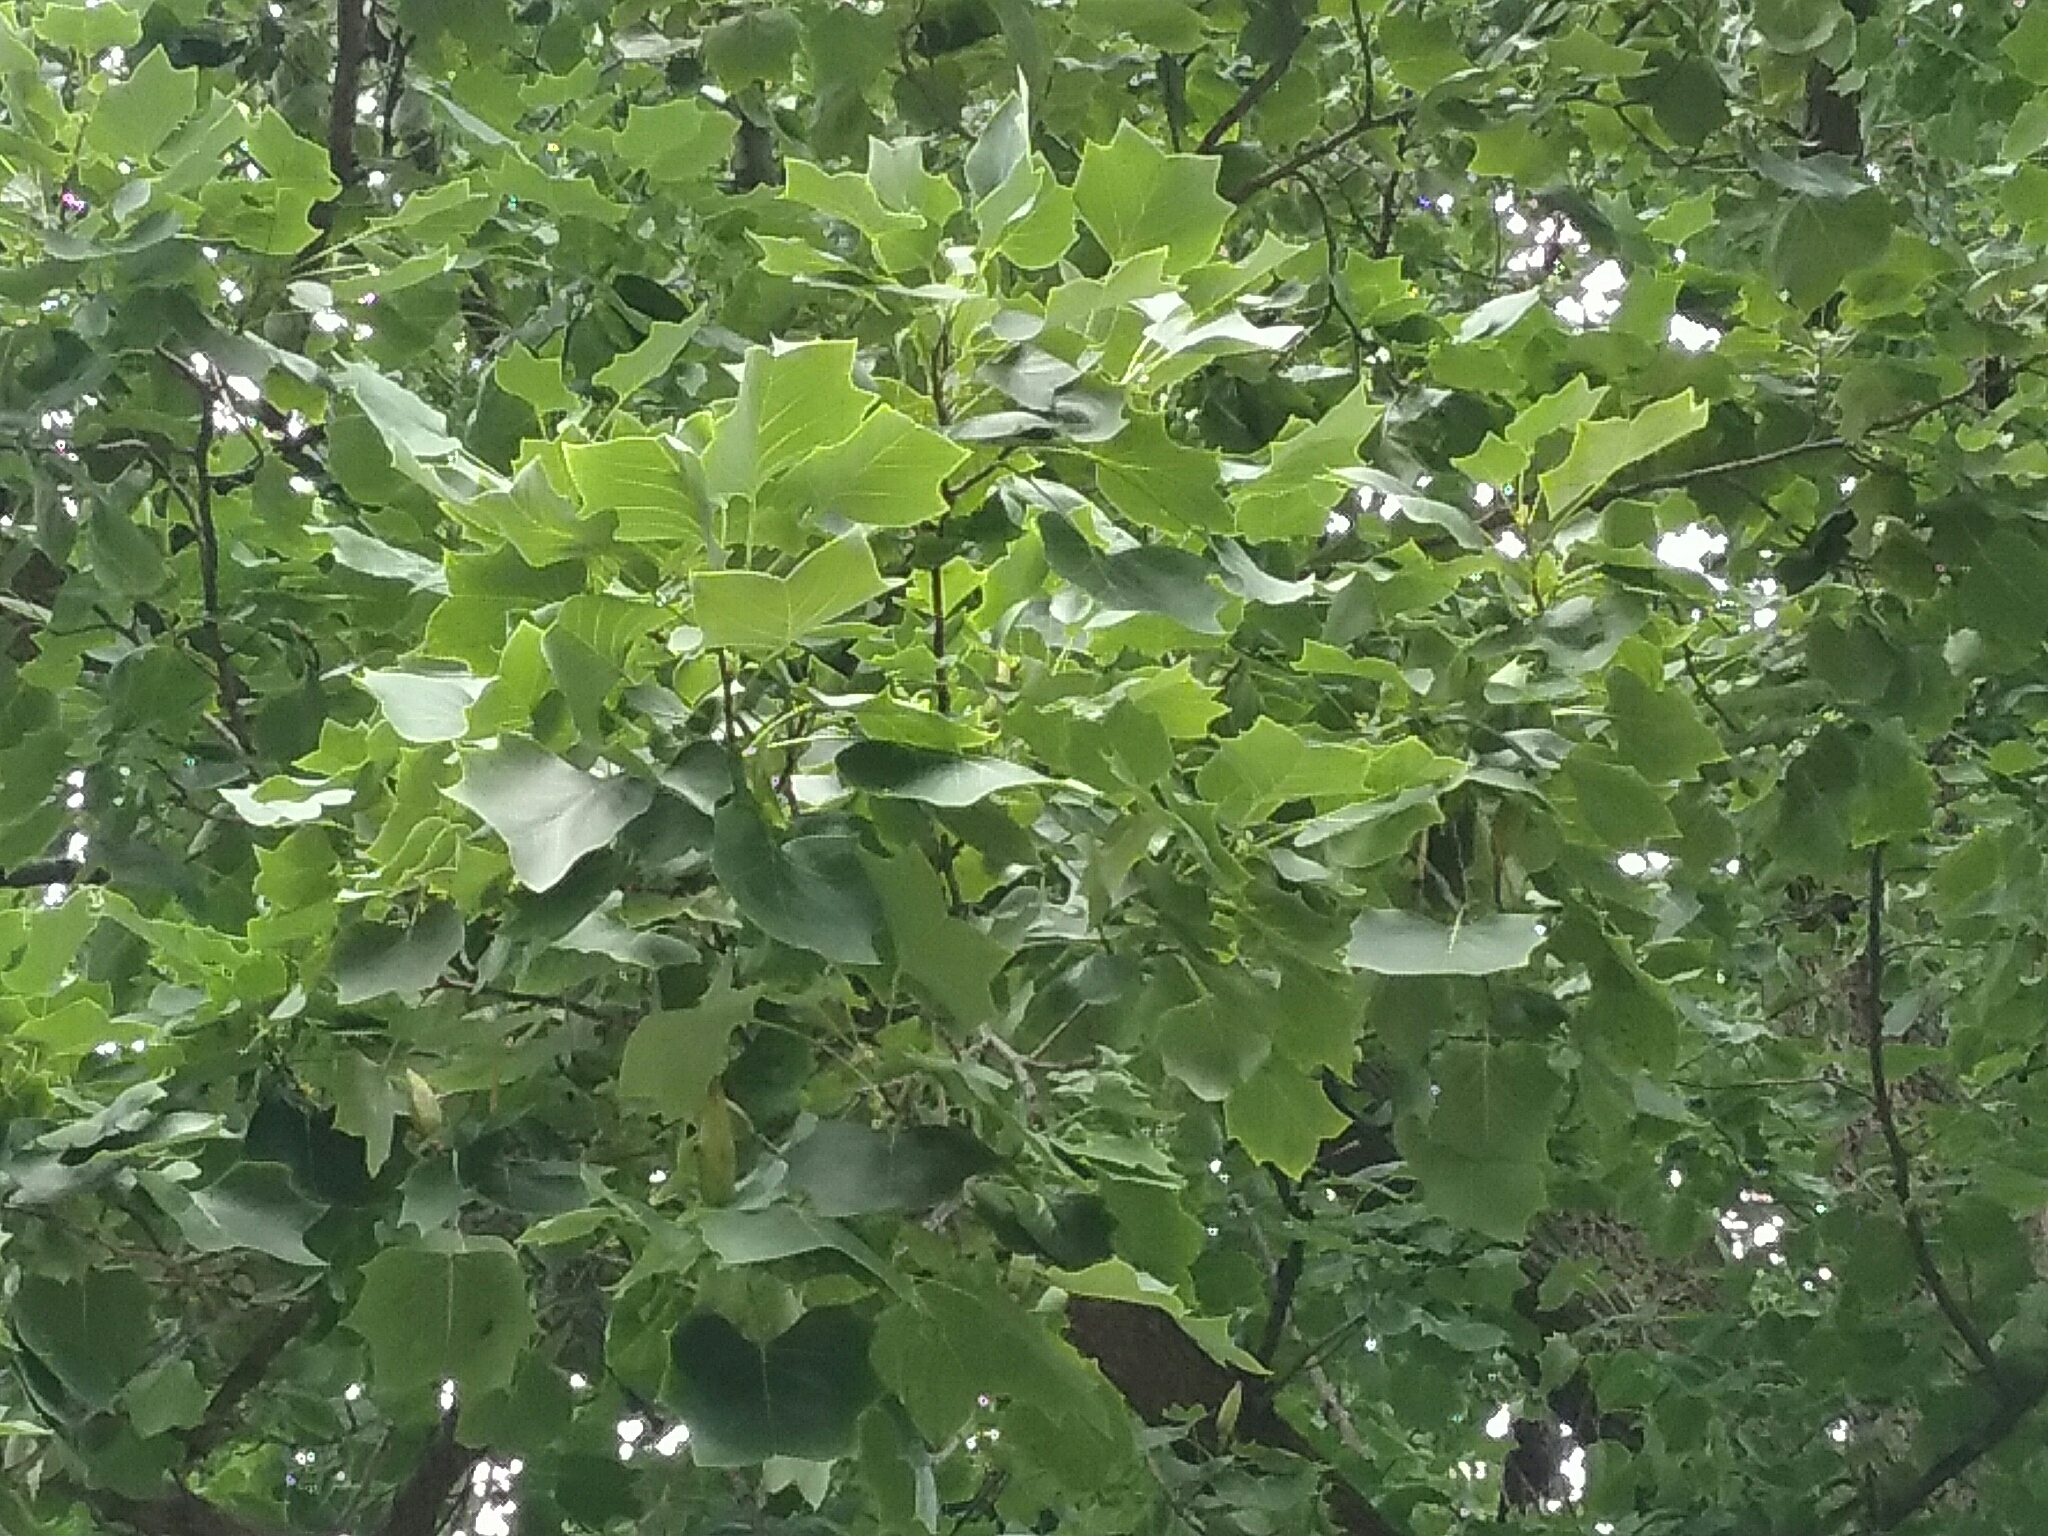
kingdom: Plantae
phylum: Tracheophyta
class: Magnoliopsida
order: Magnoliales
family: Magnoliaceae
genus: Liriodendron
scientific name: Liriodendron tulipifera
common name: Tulip tree
